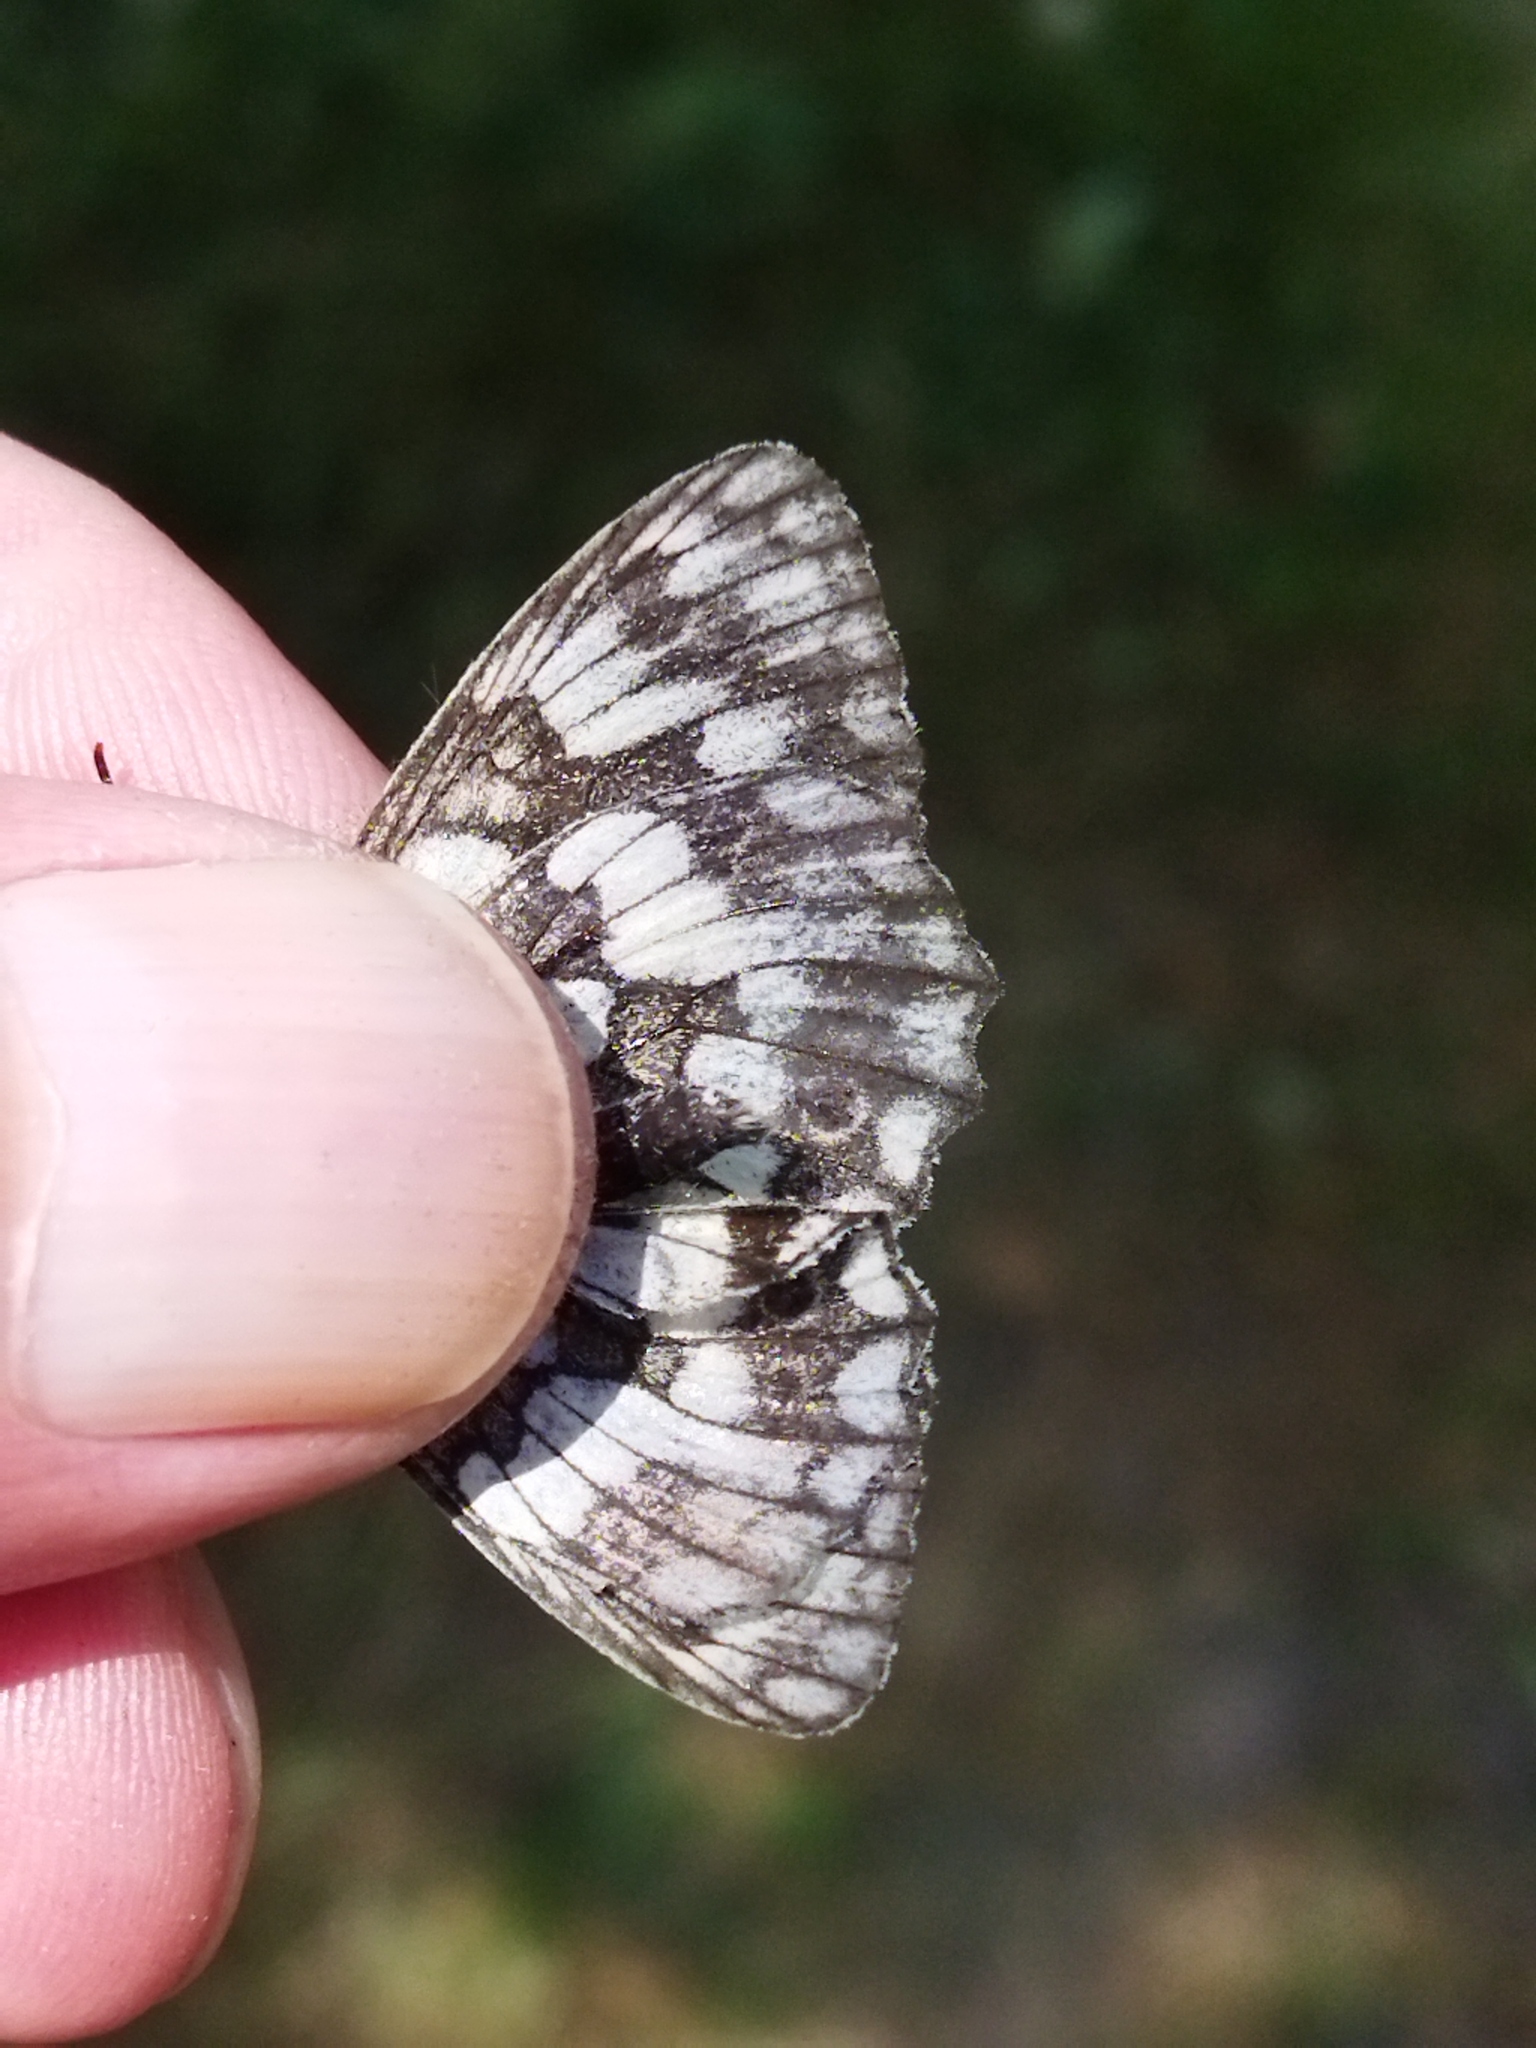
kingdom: Animalia
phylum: Arthropoda
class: Insecta
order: Lepidoptera
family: Nymphalidae
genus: Melanargia
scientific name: Melanargia galathea
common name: Marbled white
